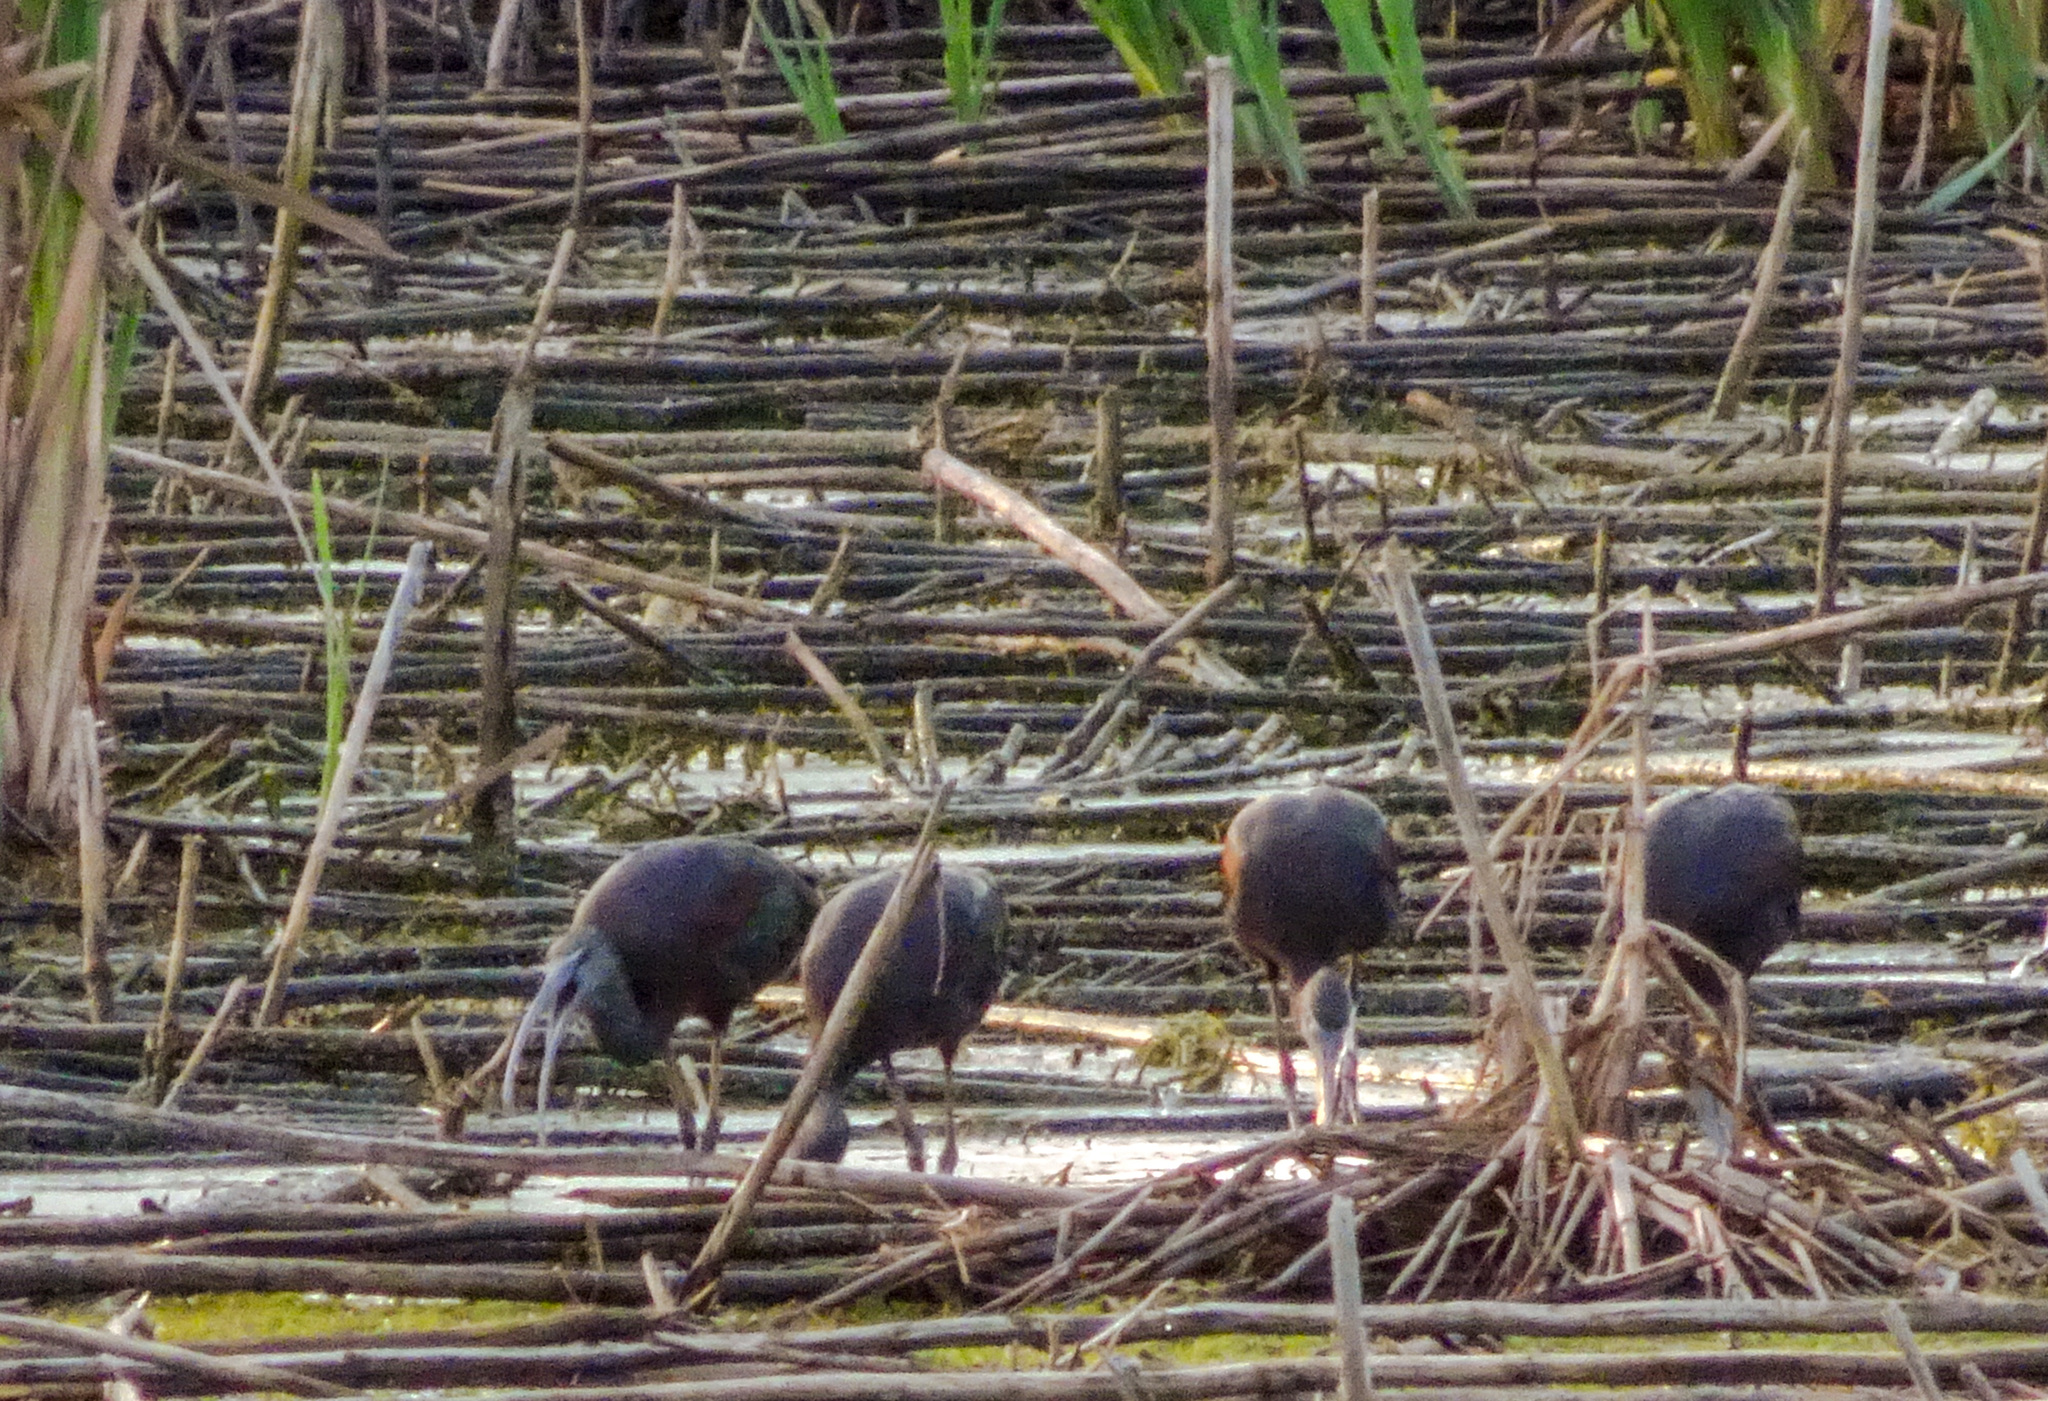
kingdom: Animalia
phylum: Chordata
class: Aves
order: Pelecaniformes
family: Threskiornithidae
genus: Plegadis
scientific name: Plegadis falcinellus
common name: Glossy ibis
